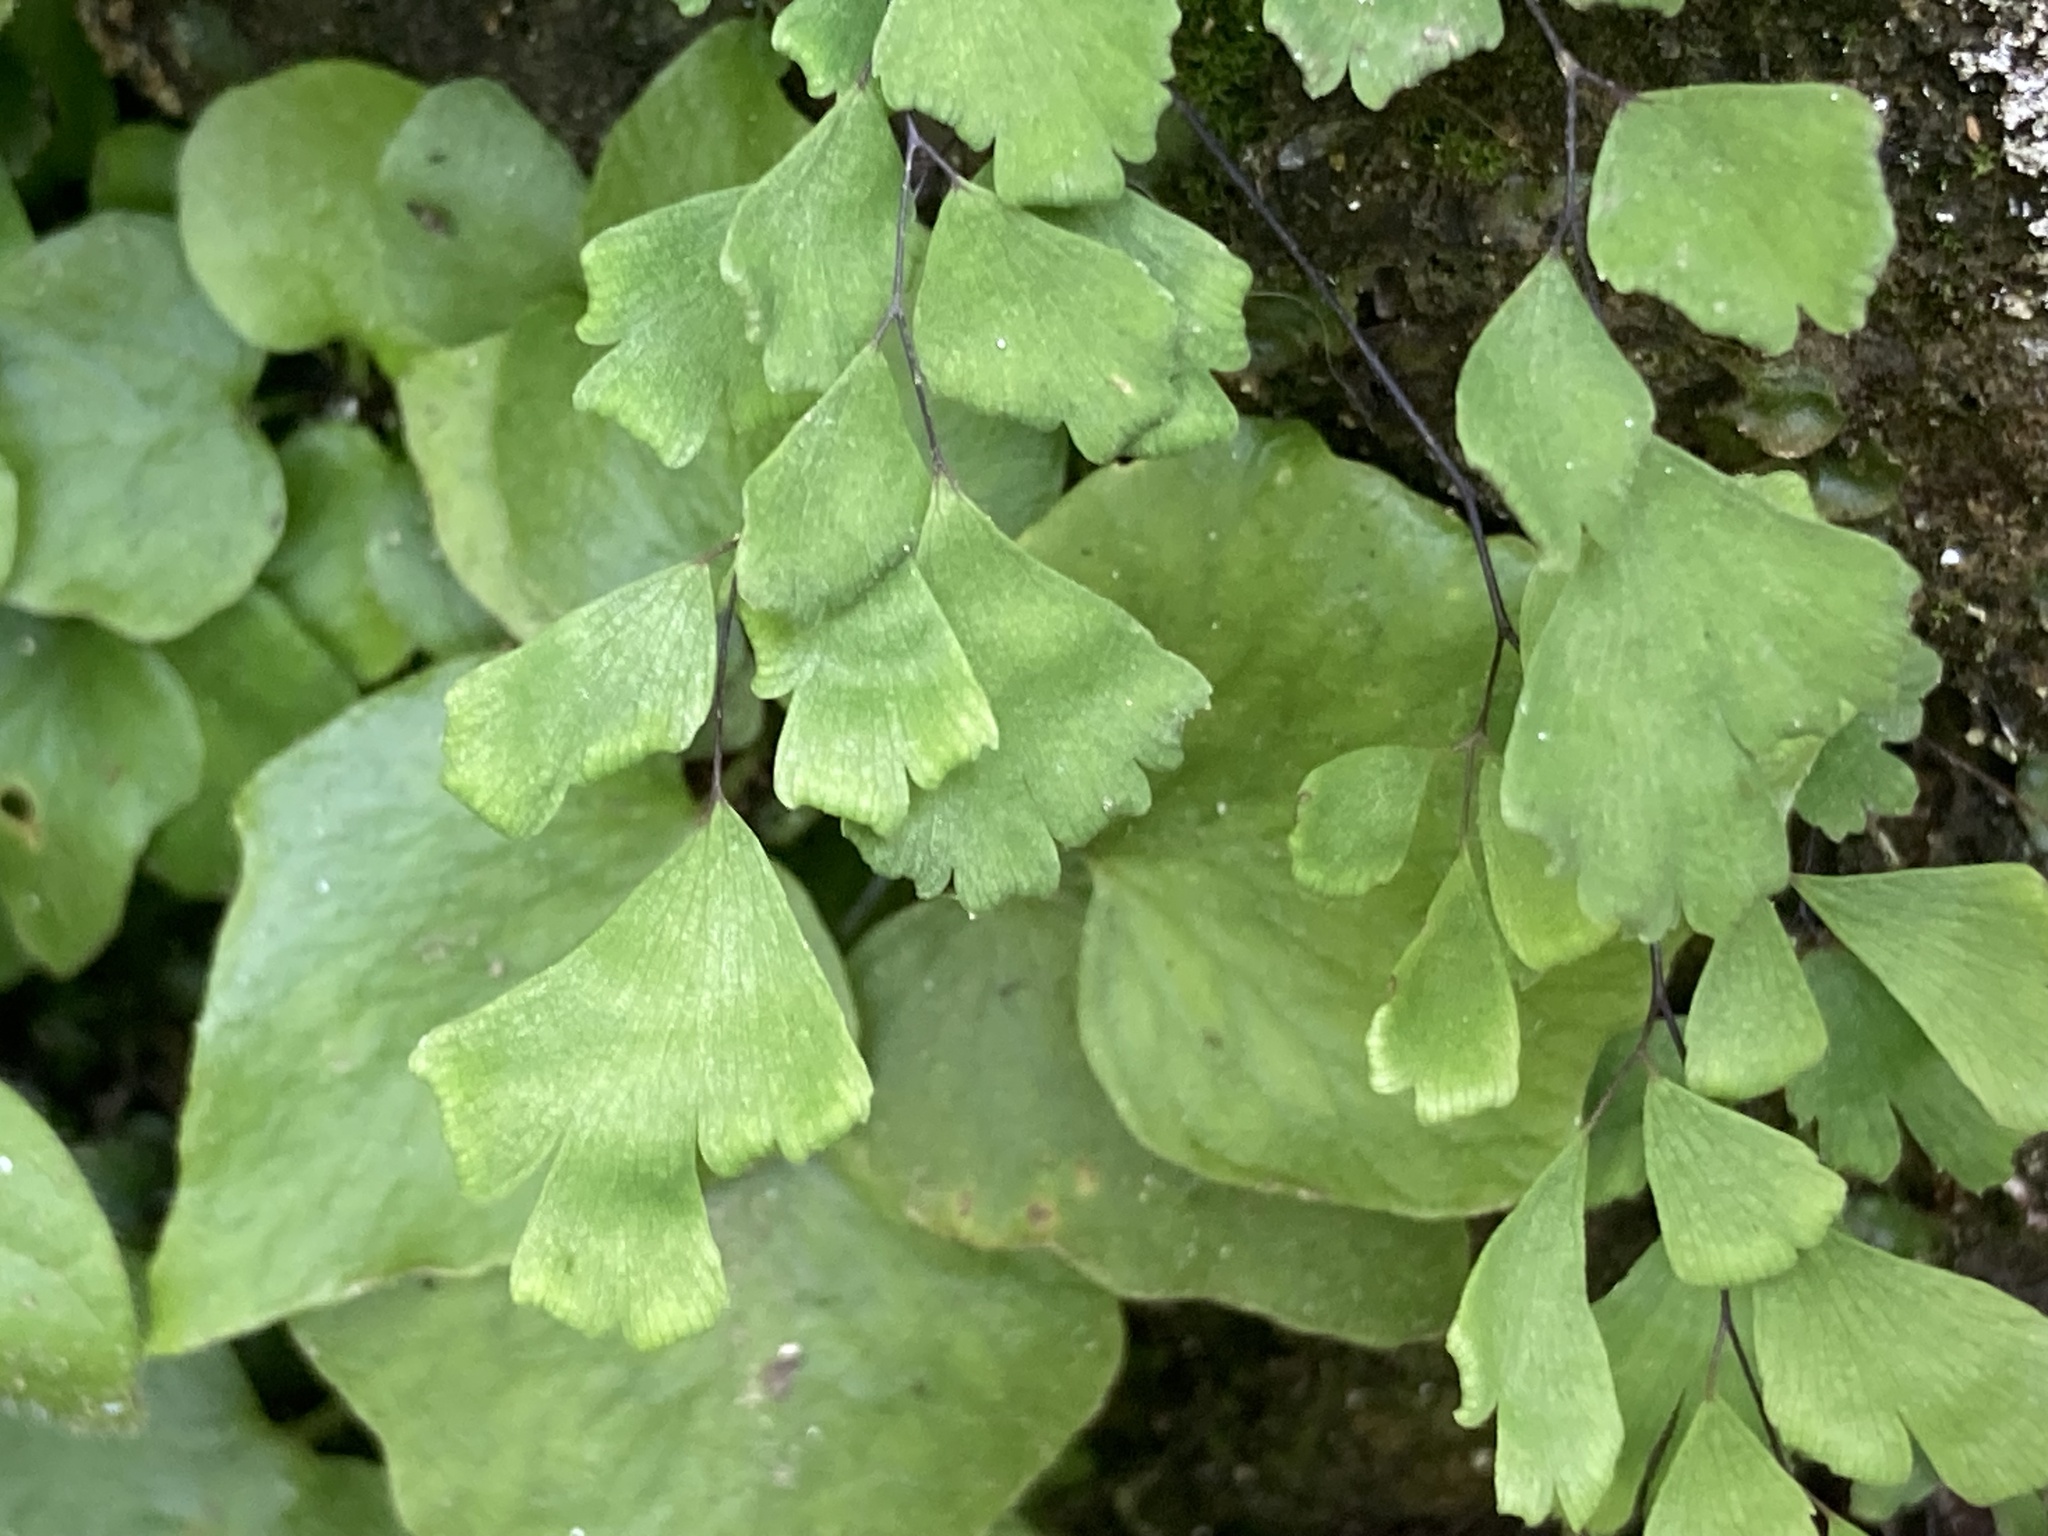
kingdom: Plantae
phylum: Tracheophyta
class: Polypodiopsida
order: Polypodiales
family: Pteridaceae
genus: Adiantum
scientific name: Adiantum capillus-veneris
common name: Maidenhair fern
